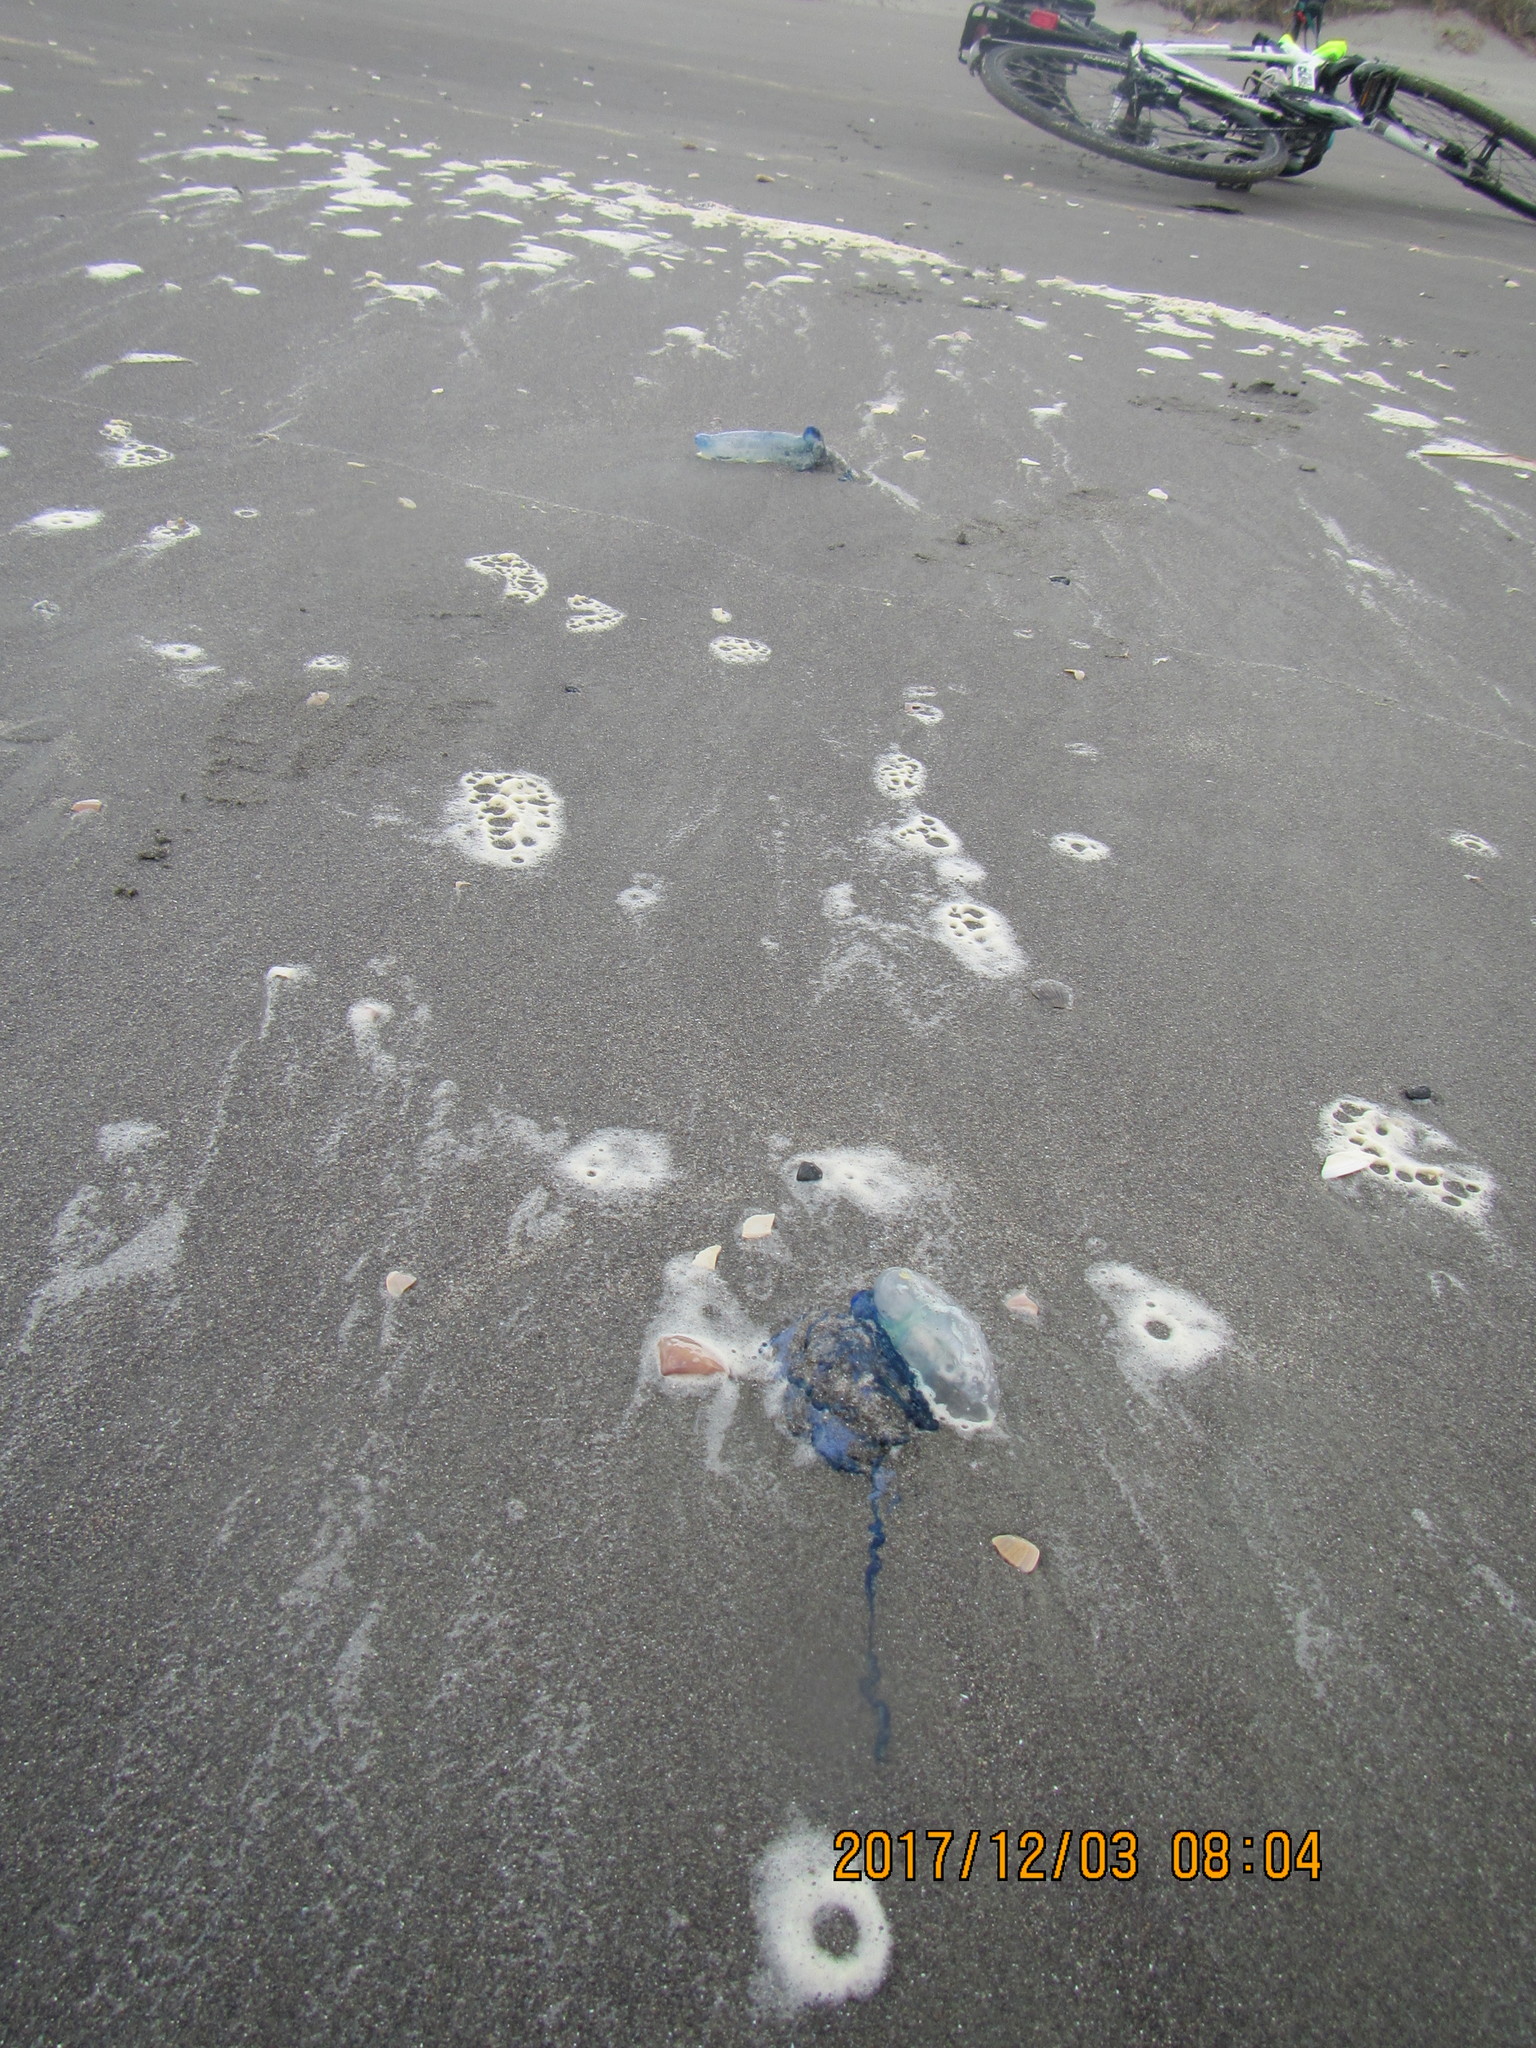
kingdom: Animalia
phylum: Cnidaria
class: Hydrozoa
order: Siphonophorae
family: Physaliidae
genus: Physalia
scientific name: Physalia physalis
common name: Portuguese man-of-war
